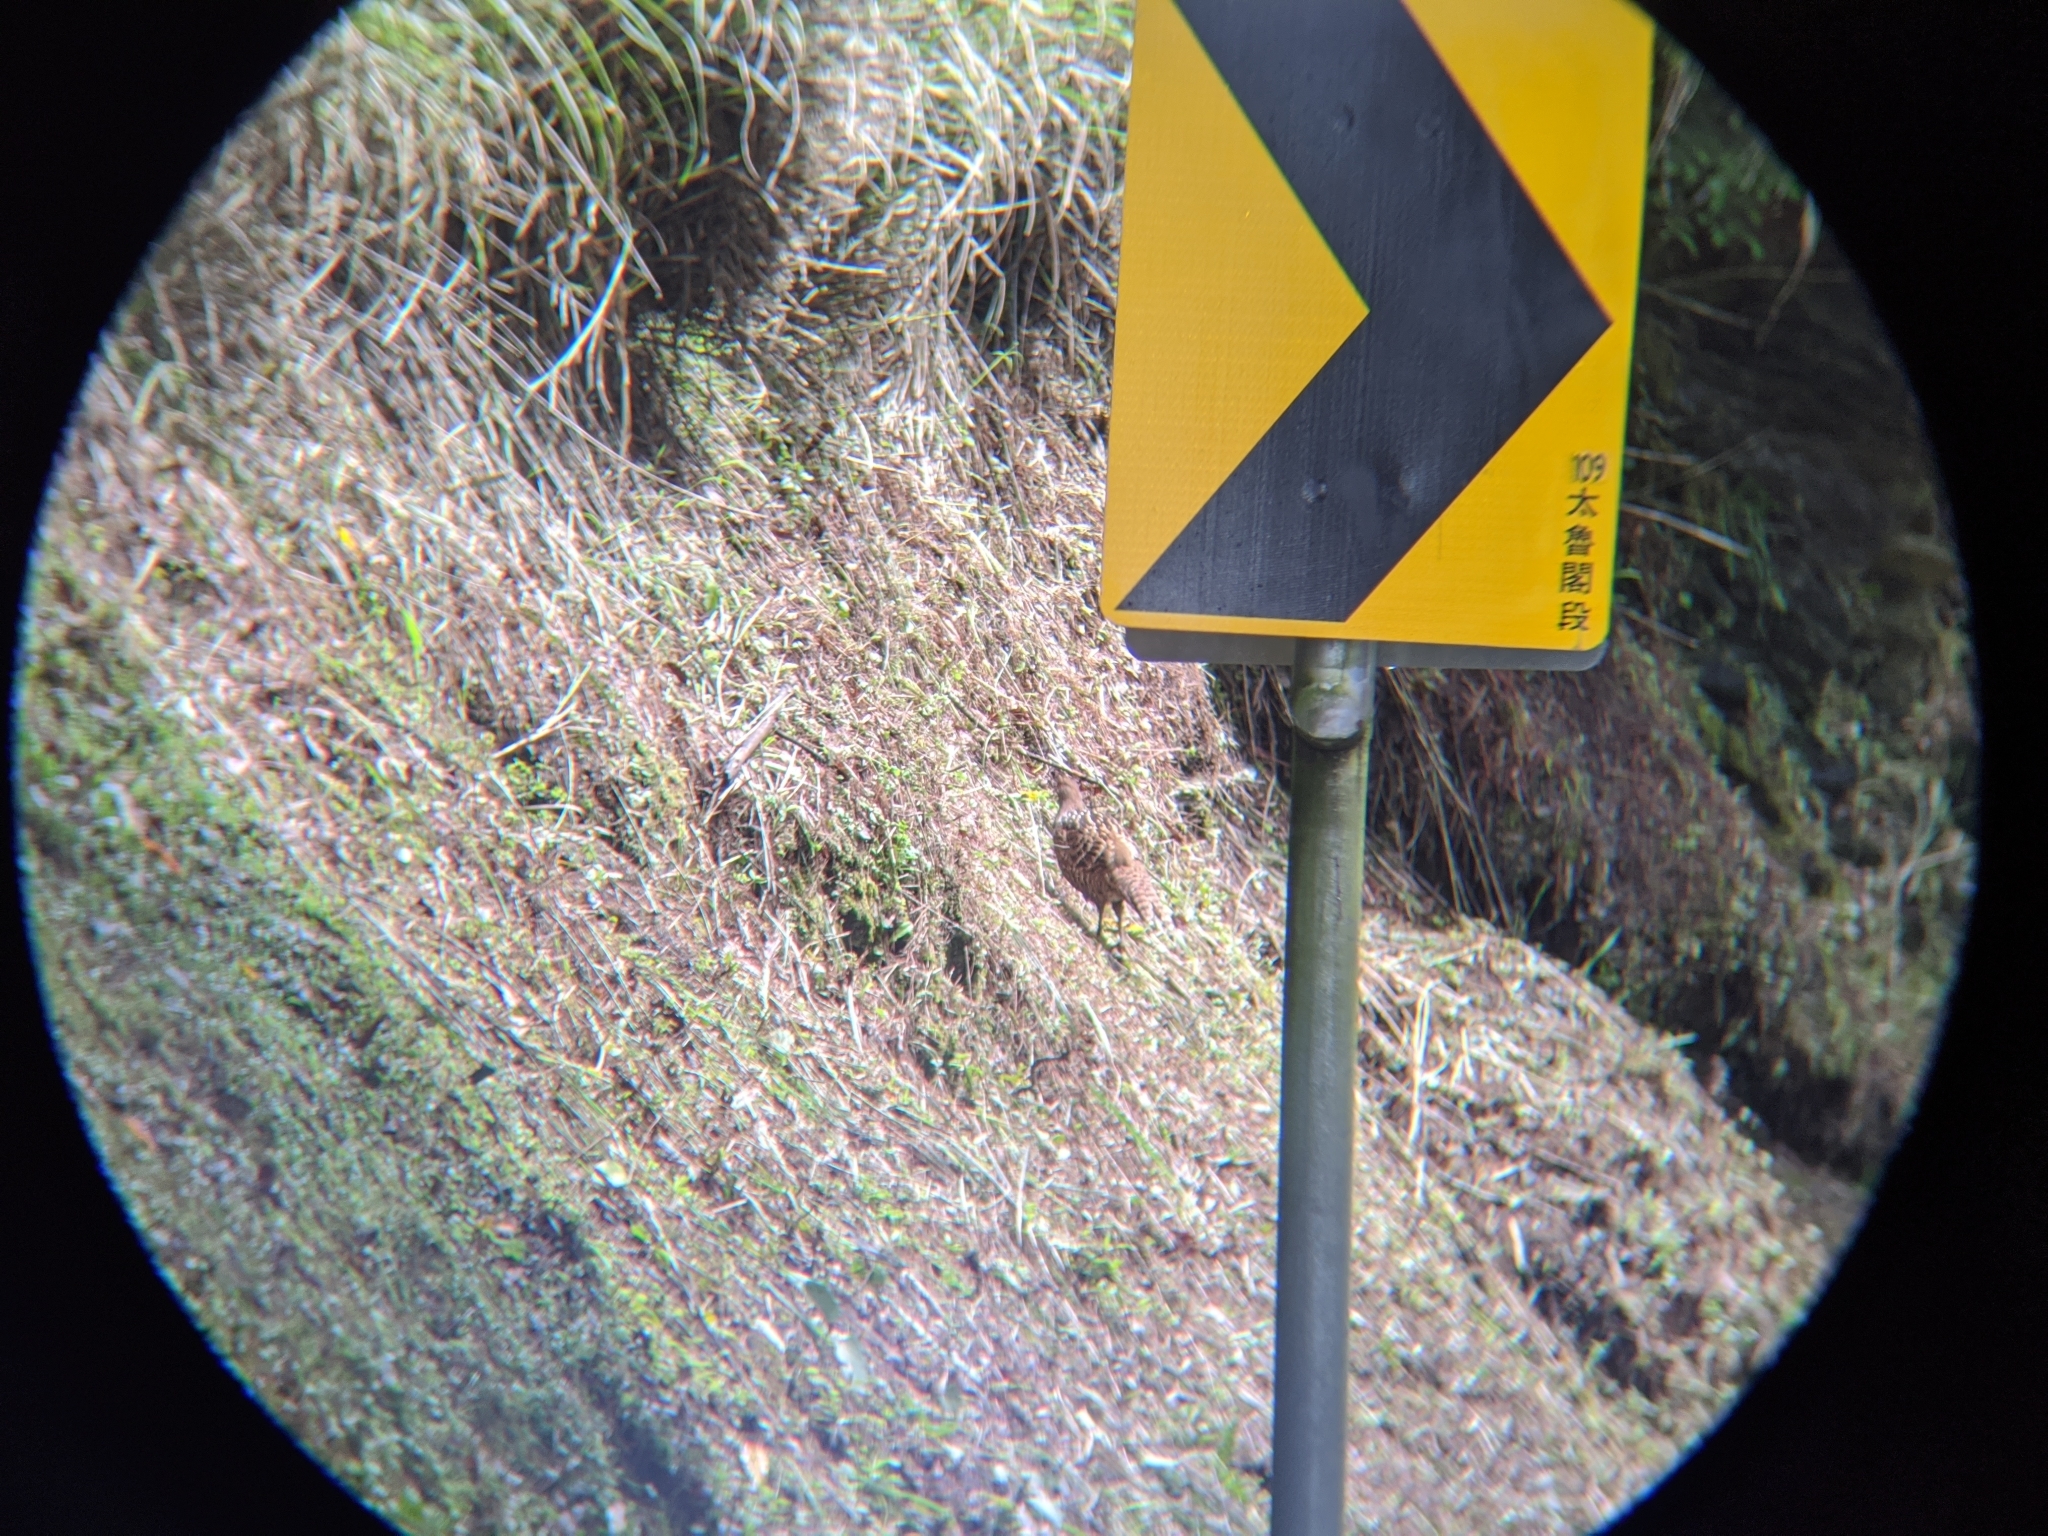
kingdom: Animalia
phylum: Chordata
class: Aves
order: Galliformes
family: Phasianidae
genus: Syrmaticus
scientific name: Syrmaticus mikado
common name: Mikado pheasant
